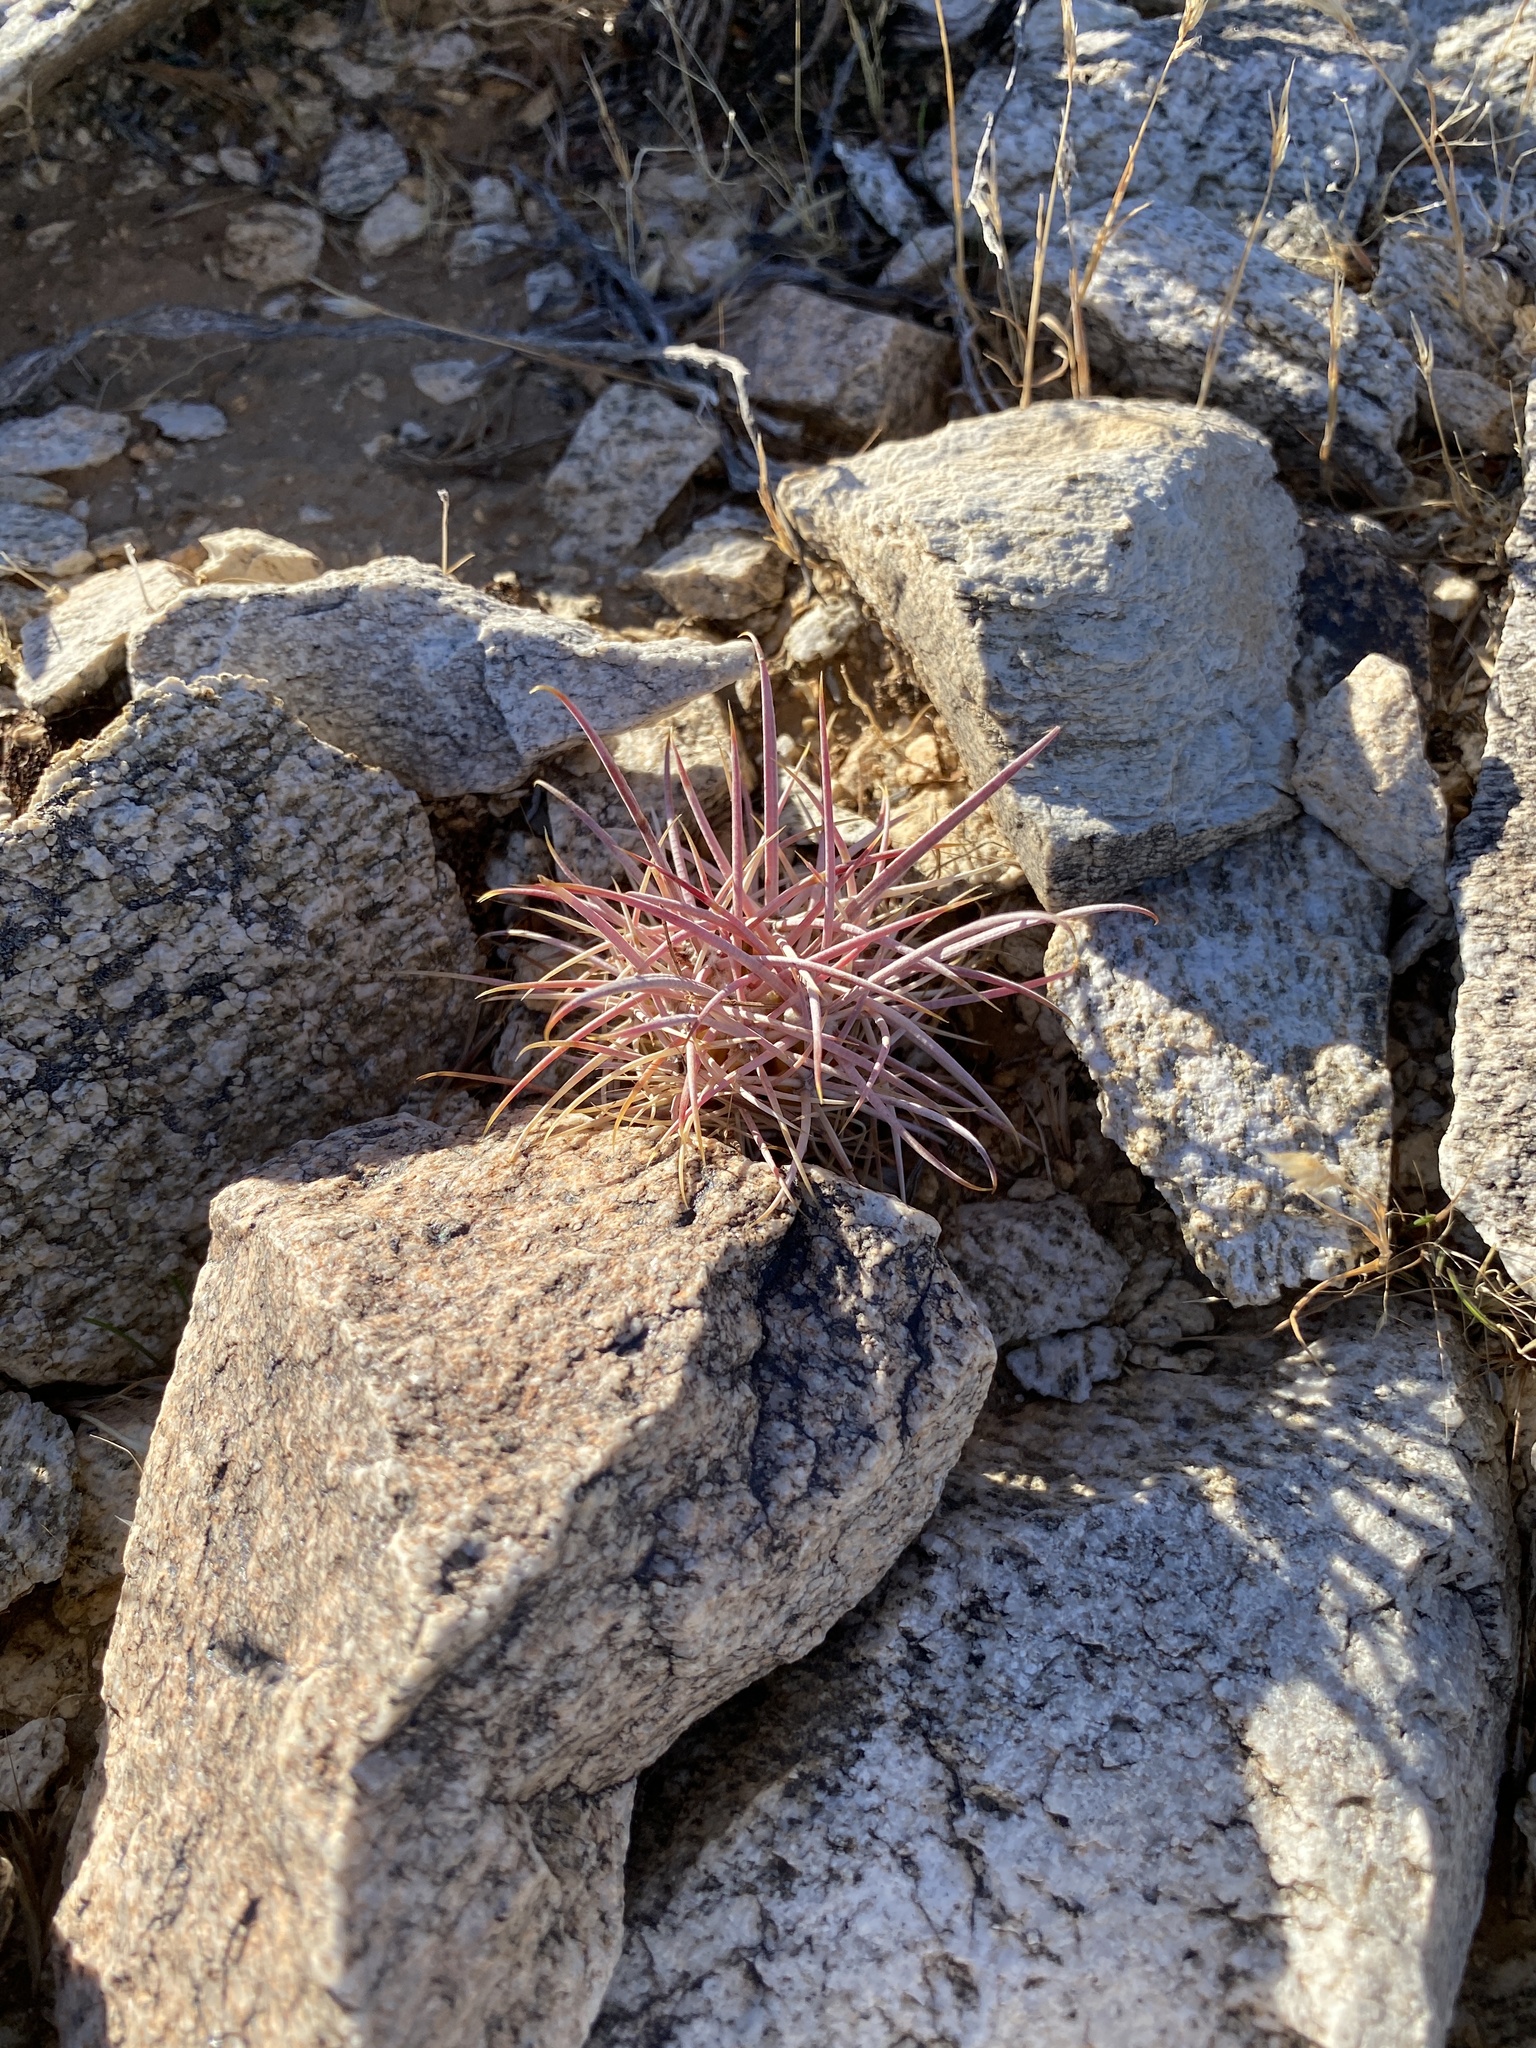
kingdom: Plantae
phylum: Tracheophyta
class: Magnoliopsida
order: Caryophyllales
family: Cactaceae
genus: Ferocactus
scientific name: Ferocactus cylindraceus
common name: California barrel cactus
